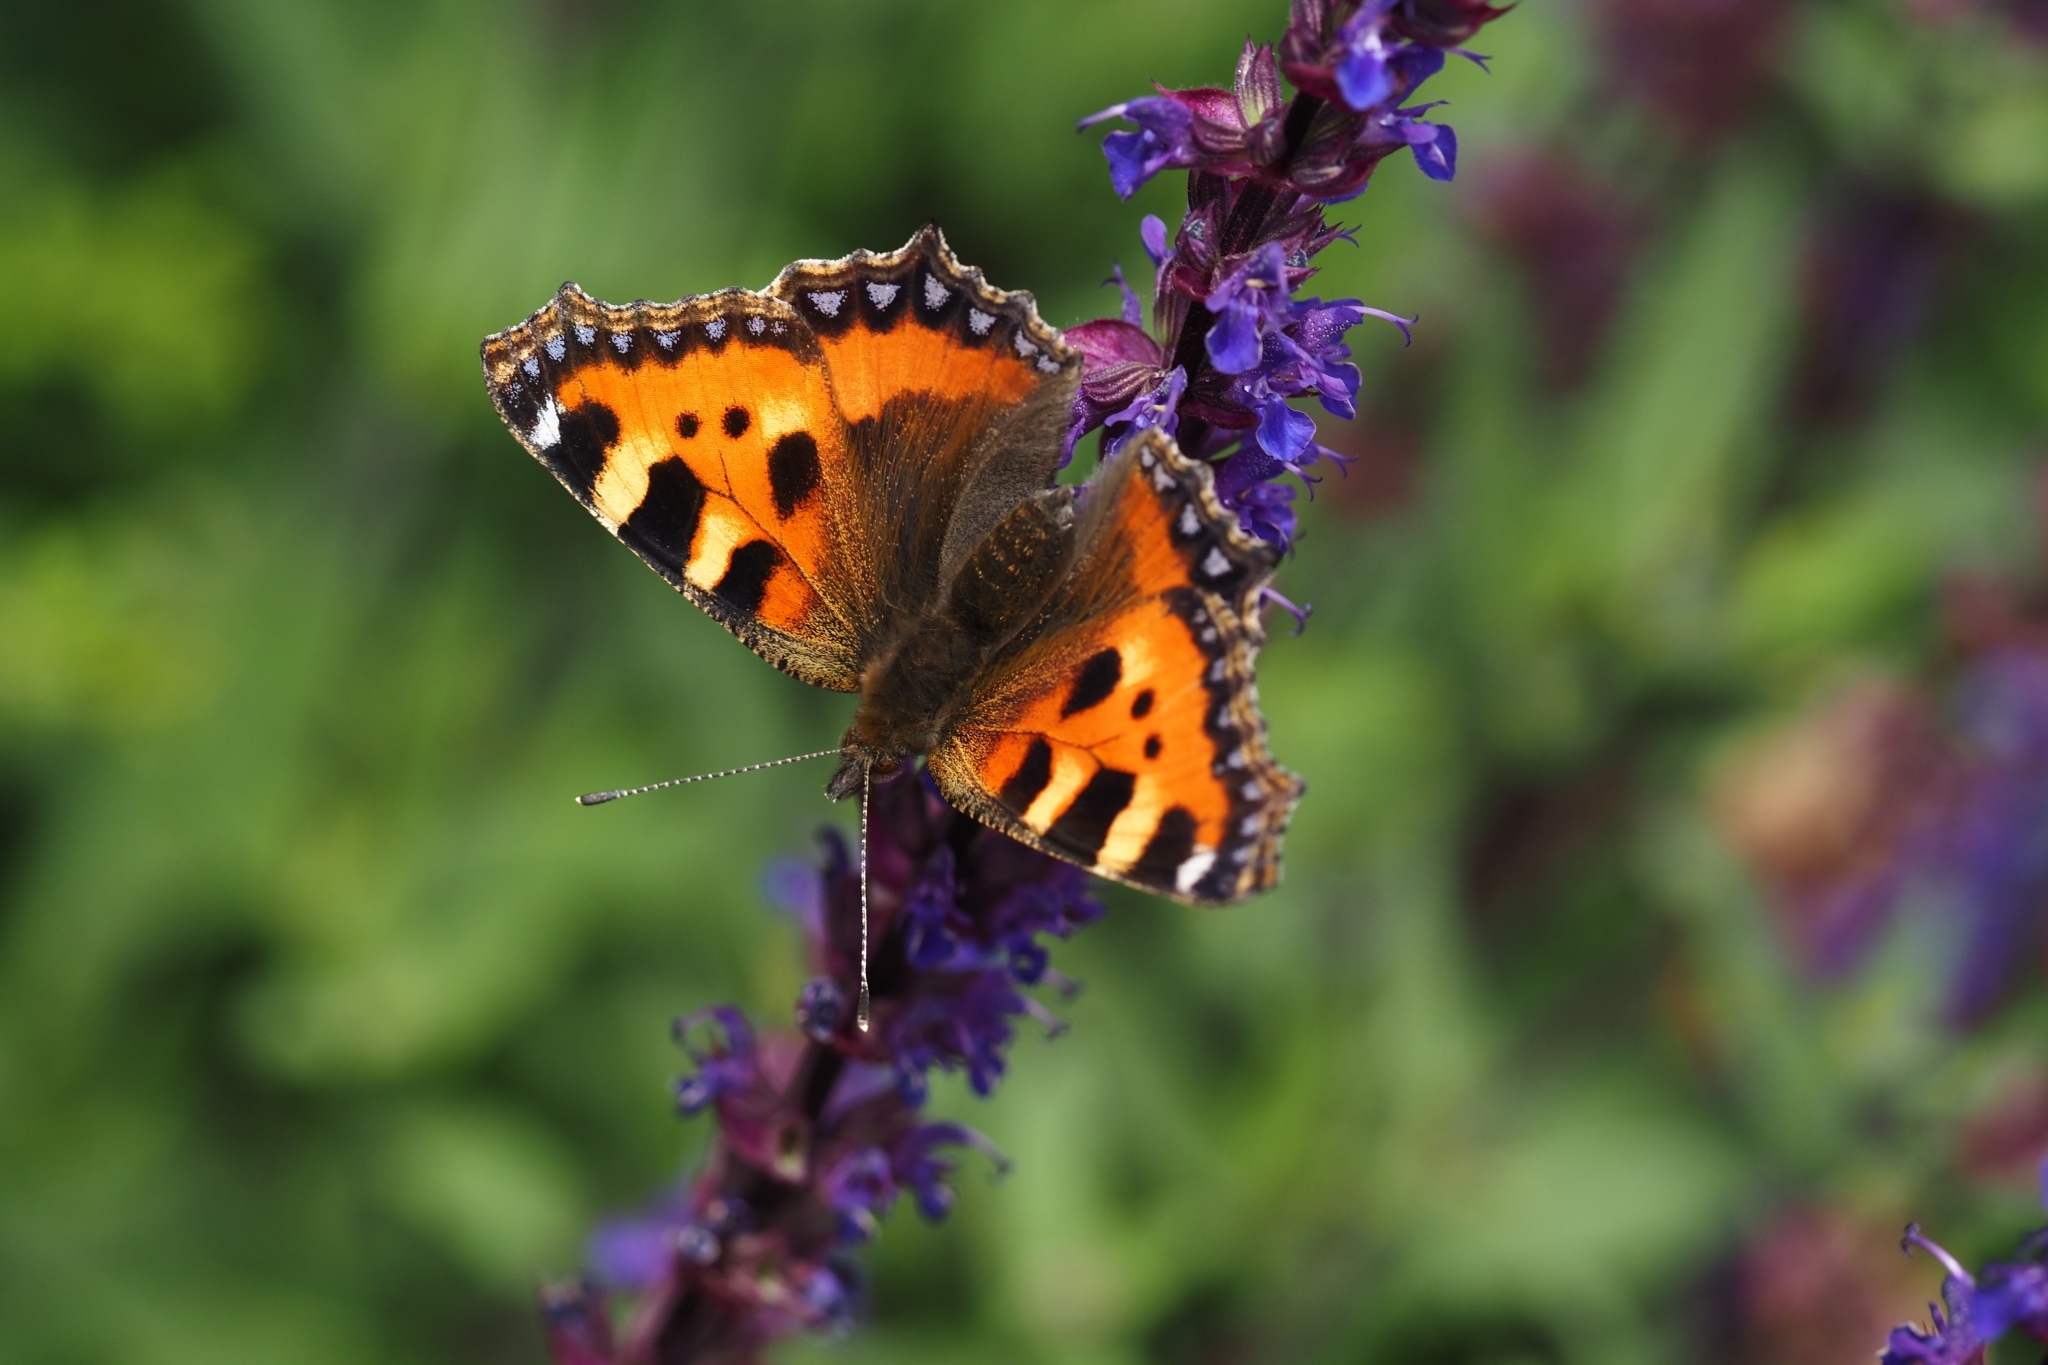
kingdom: Animalia
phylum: Arthropoda
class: Insecta
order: Lepidoptera
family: Nymphalidae
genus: Aglais
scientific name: Aglais urticae
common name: Small tortoiseshell
